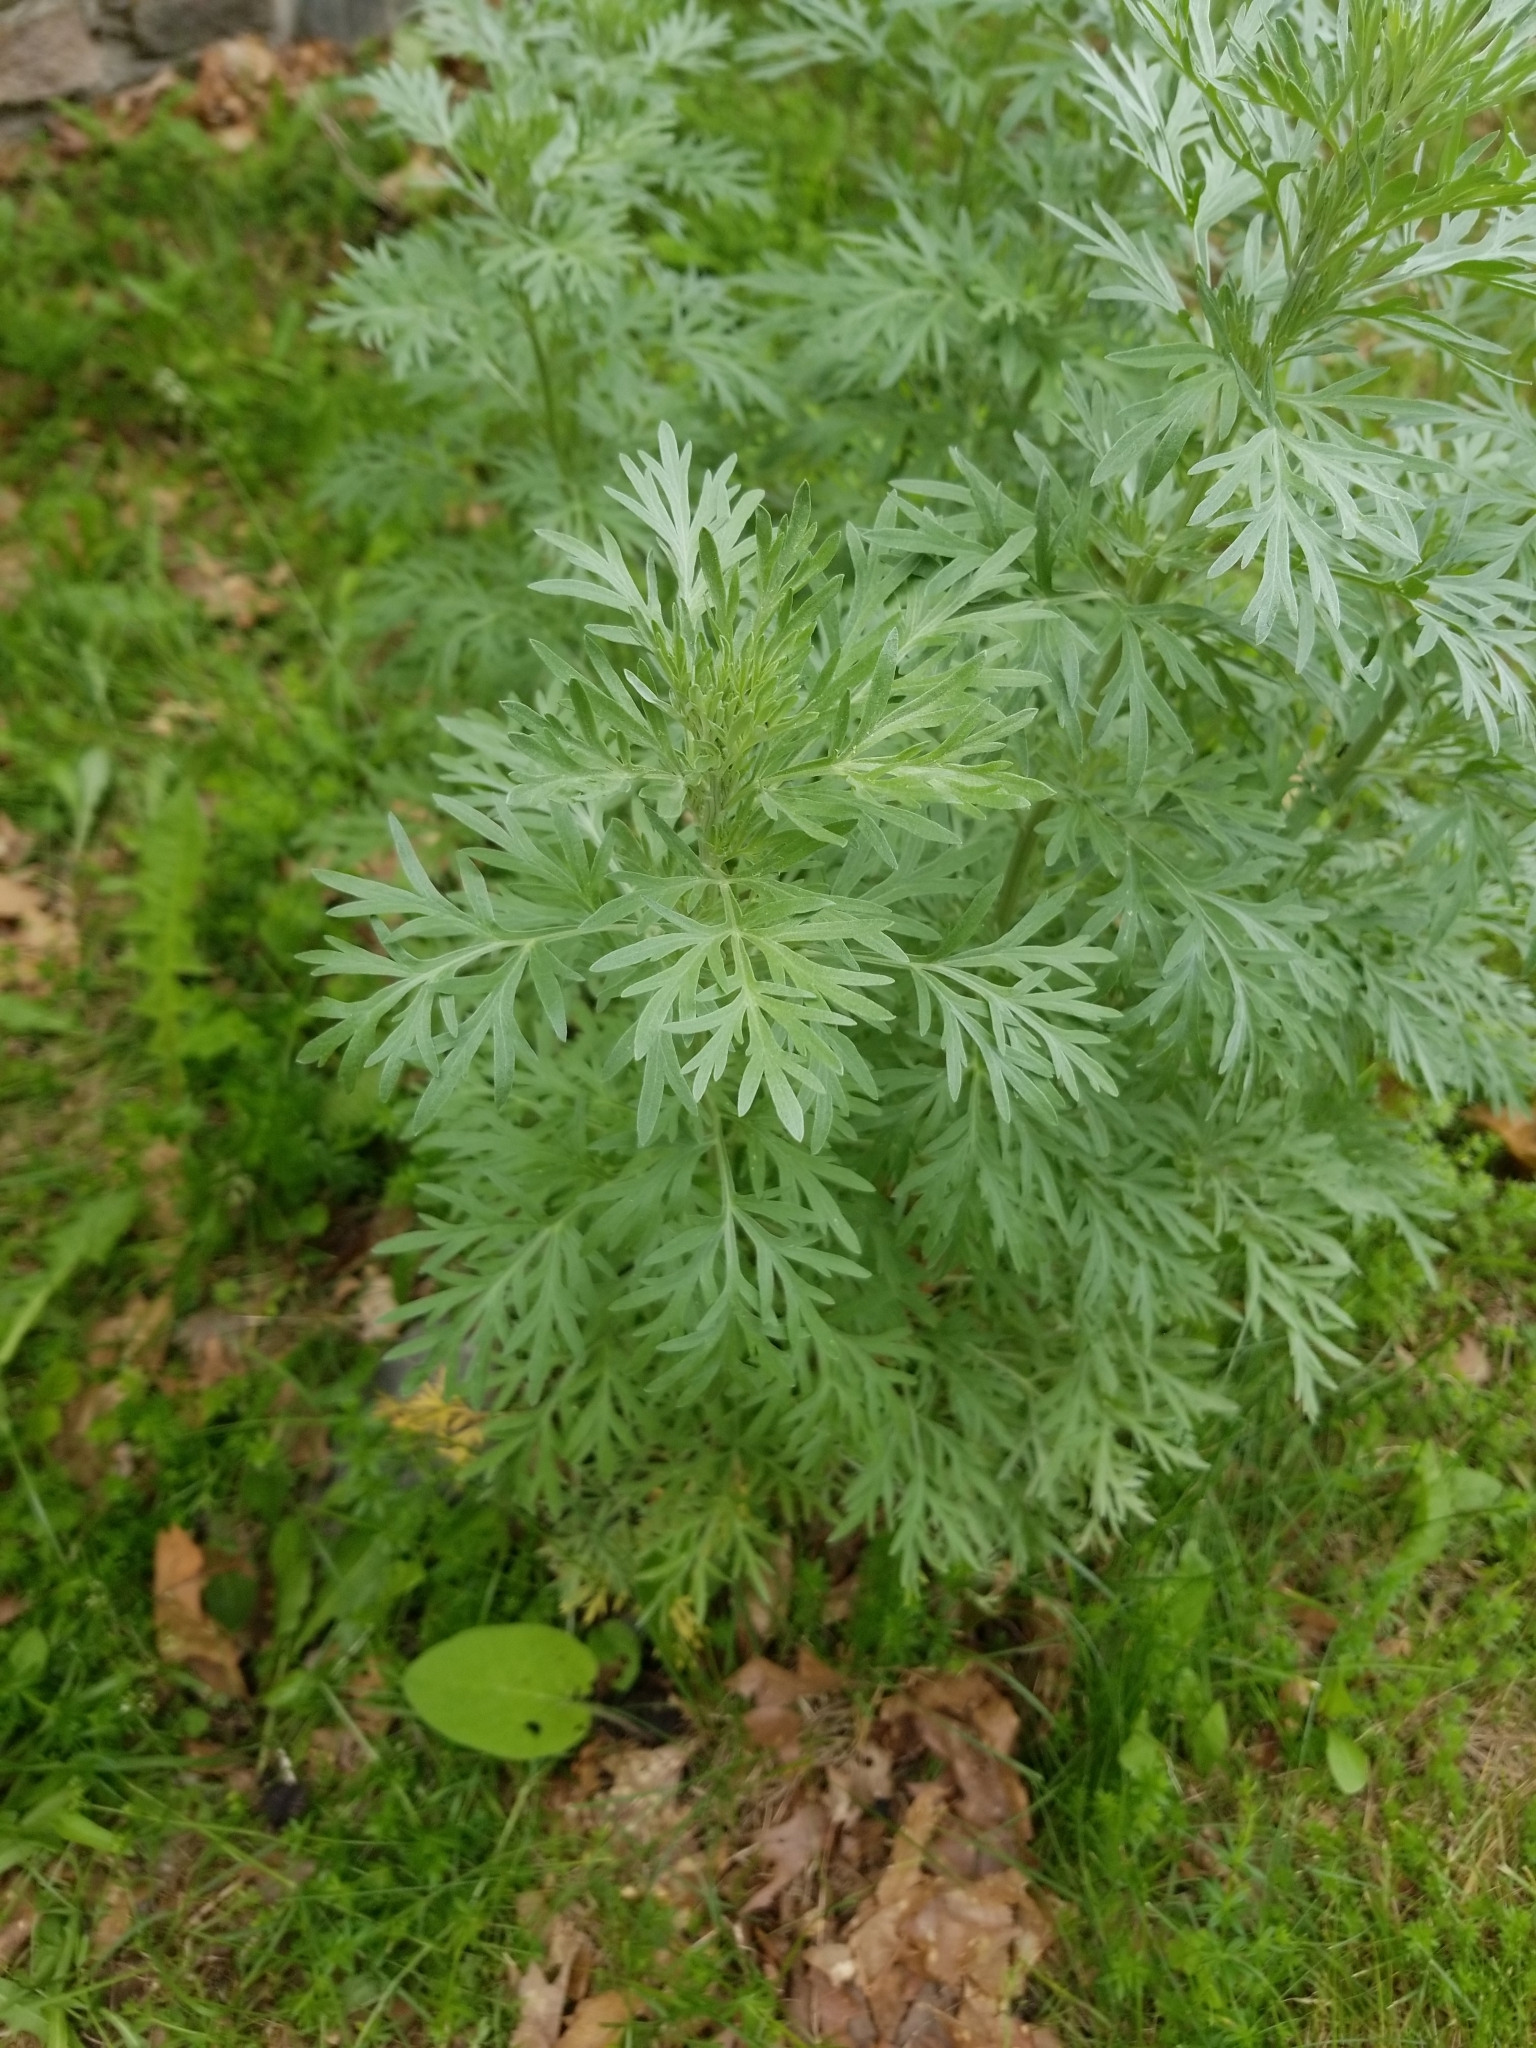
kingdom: Plantae
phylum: Tracheophyta
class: Magnoliopsida
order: Asterales
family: Asteraceae
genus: Artemisia
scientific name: Artemisia vulgaris
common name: Mugwort
